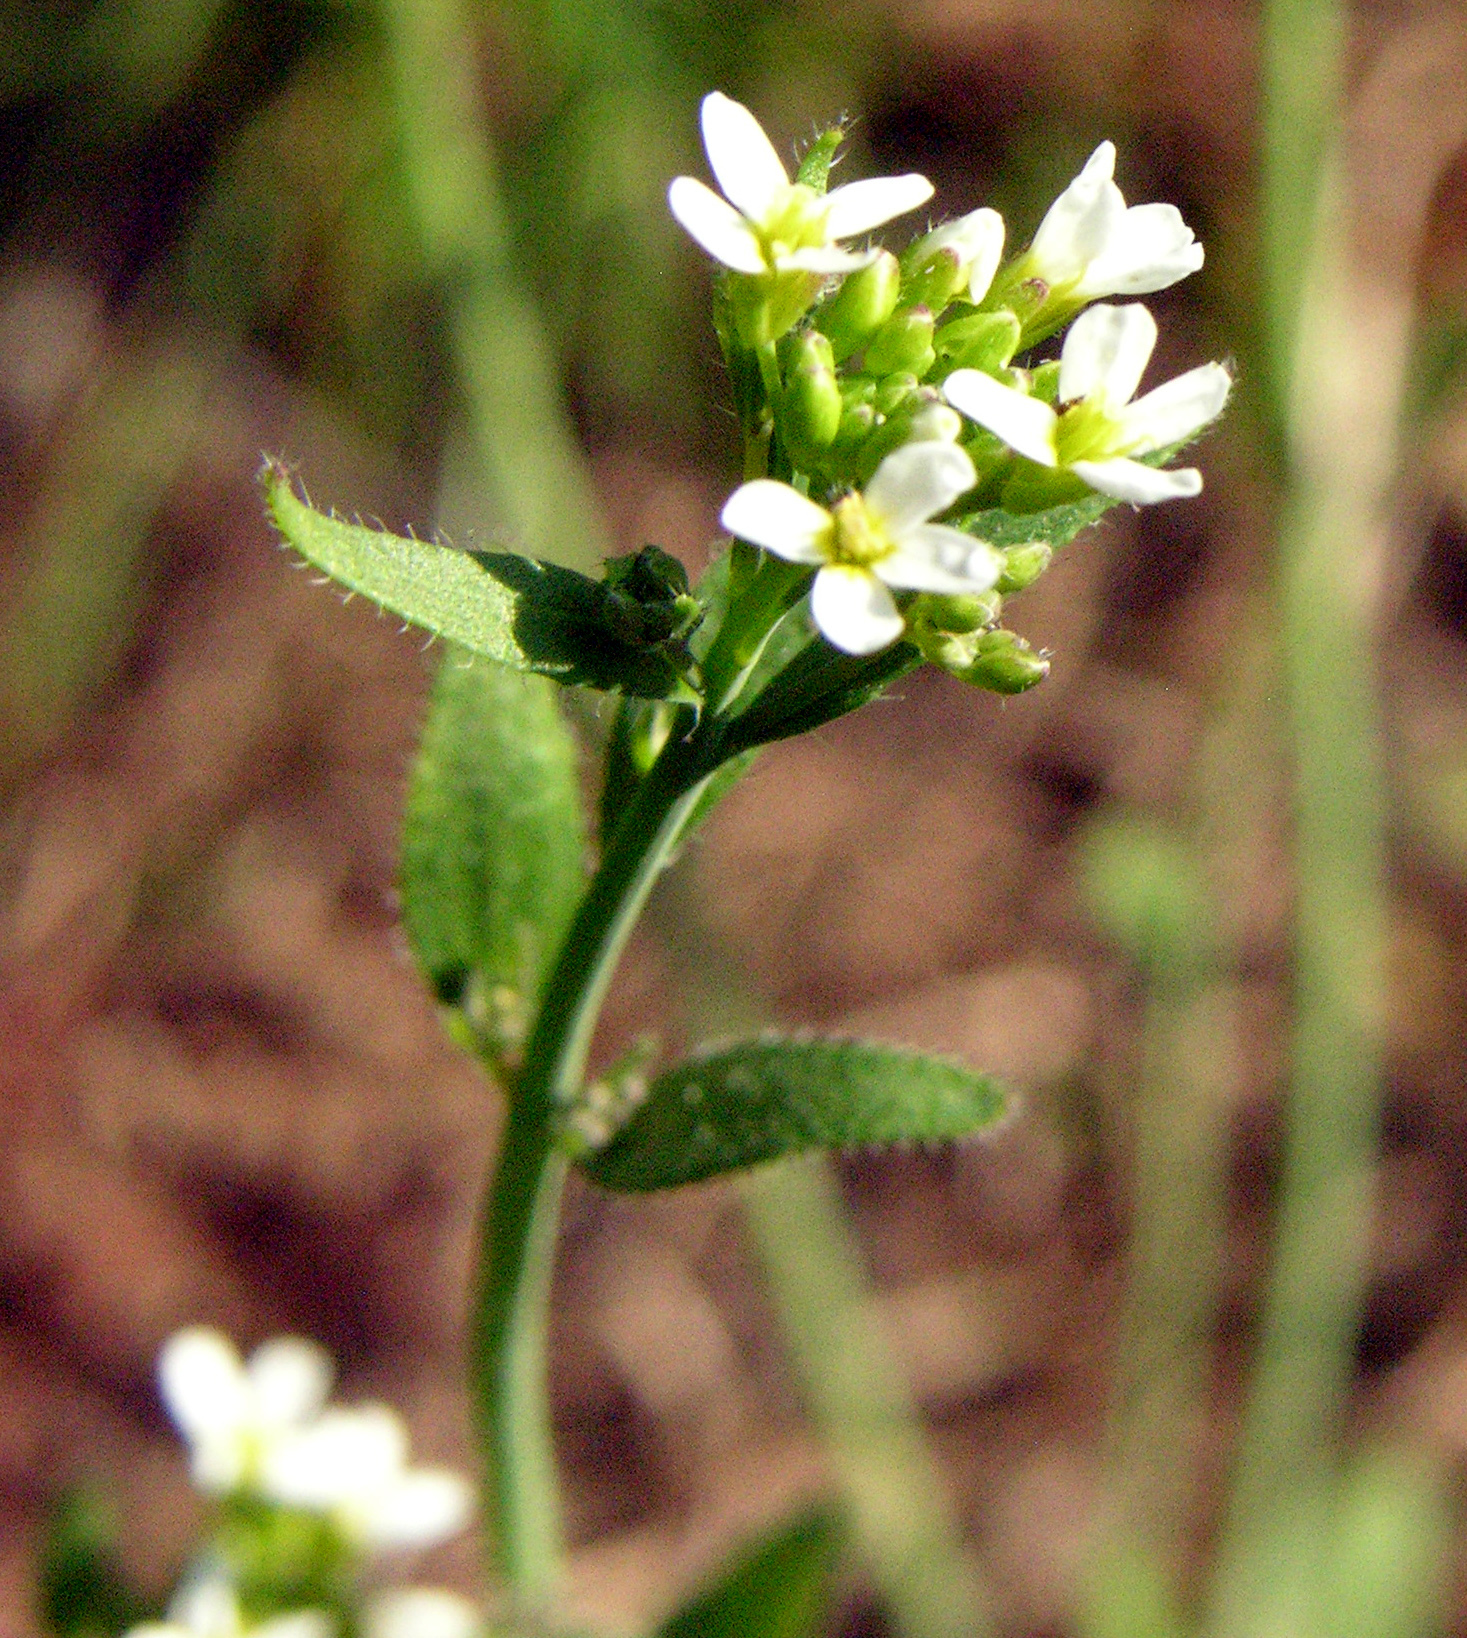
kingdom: Plantae
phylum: Tracheophyta
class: Magnoliopsida
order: Brassicales
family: Brassicaceae
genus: Arabidopsis
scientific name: Arabidopsis thaliana
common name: Thale cress
